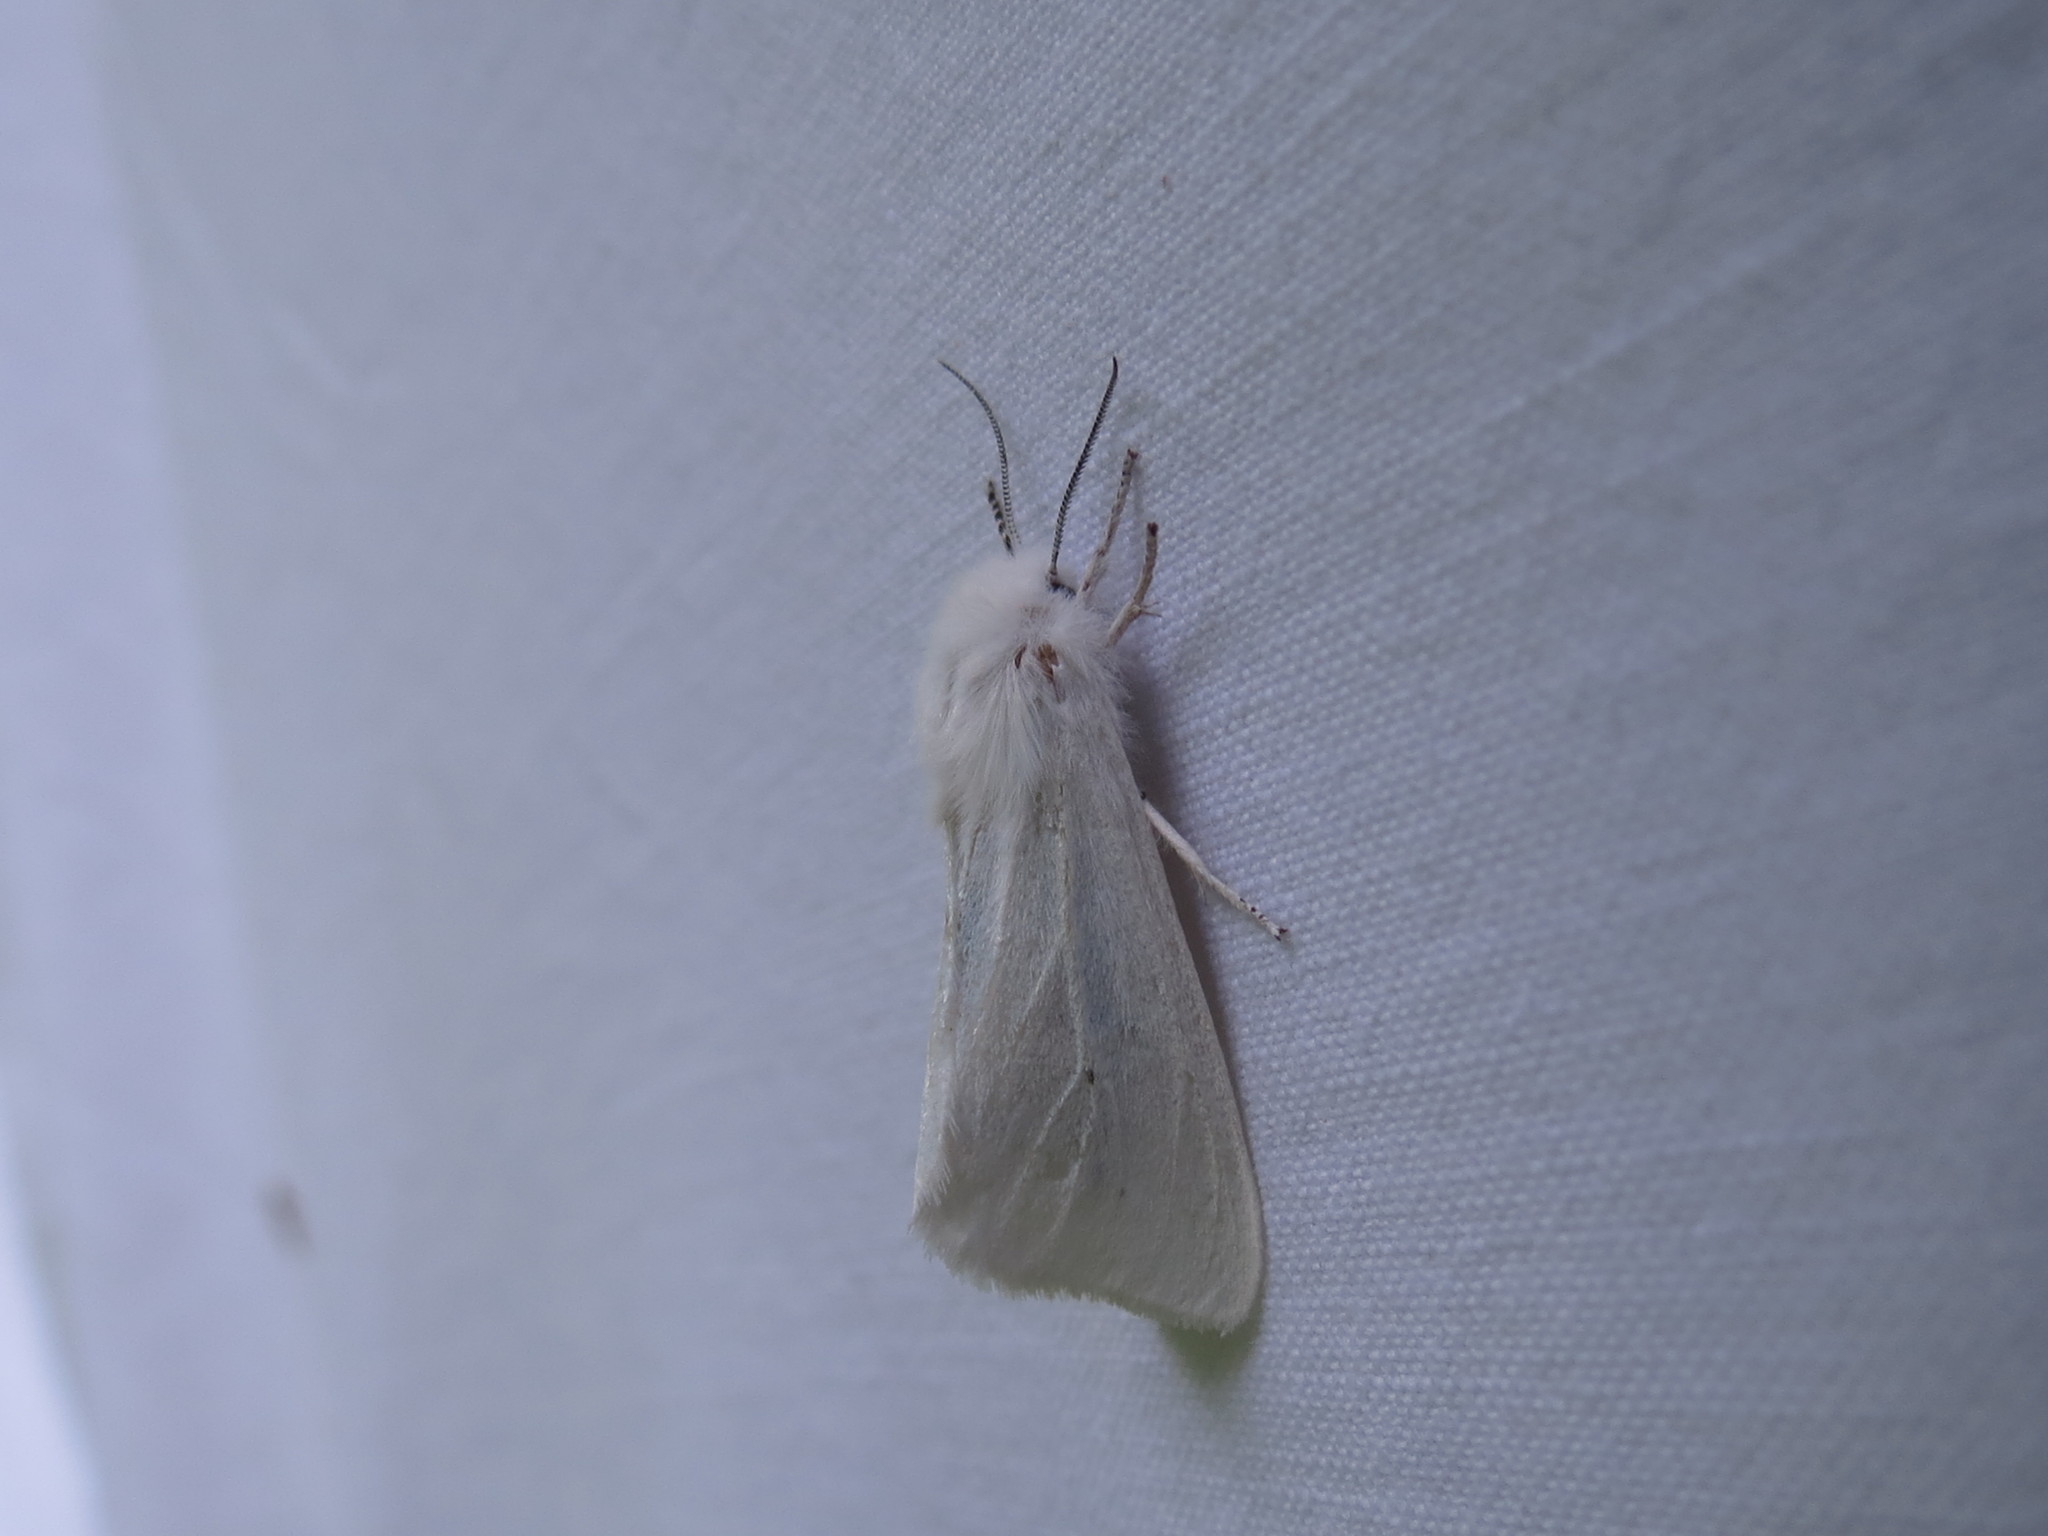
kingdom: Animalia
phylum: Arthropoda
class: Insecta
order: Lepidoptera
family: Erebidae
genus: Spilosoma
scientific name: Spilosoma virginica
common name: Virginia tiger moth
